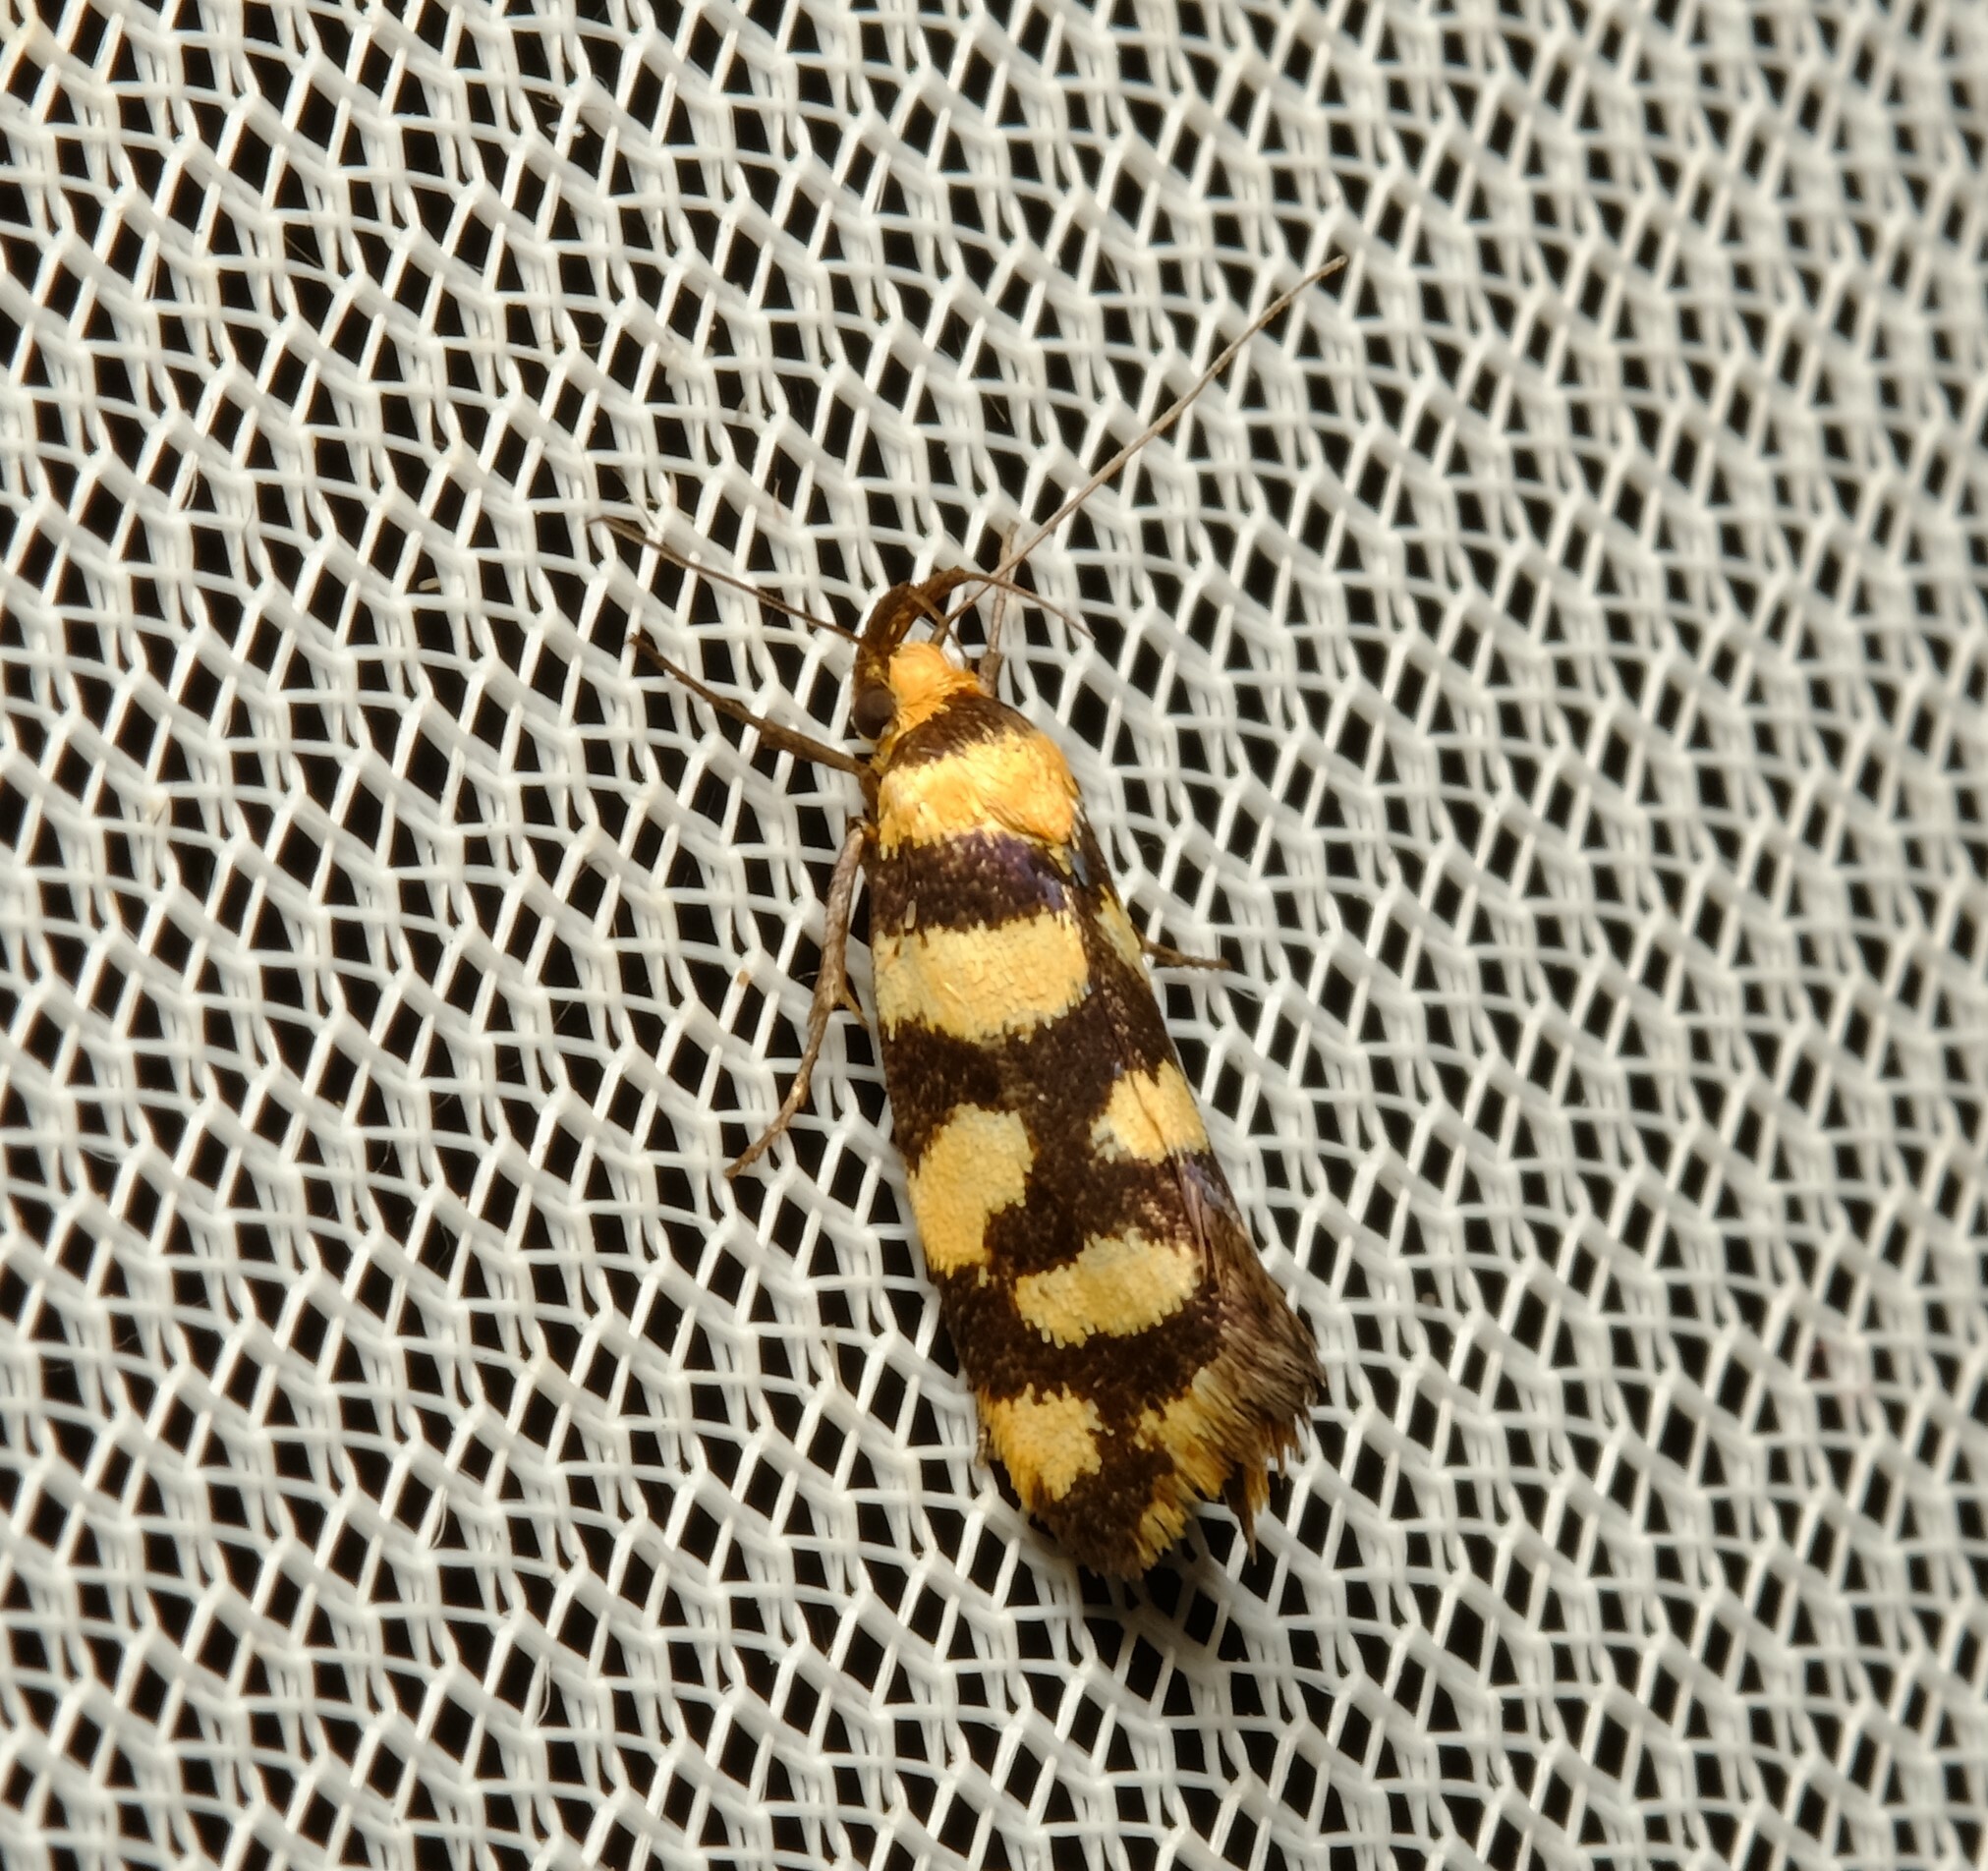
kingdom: Animalia
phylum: Arthropoda
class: Insecta
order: Lepidoptera
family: Oecophoridae
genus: Tanyzancla
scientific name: Tanyzancla argutella
